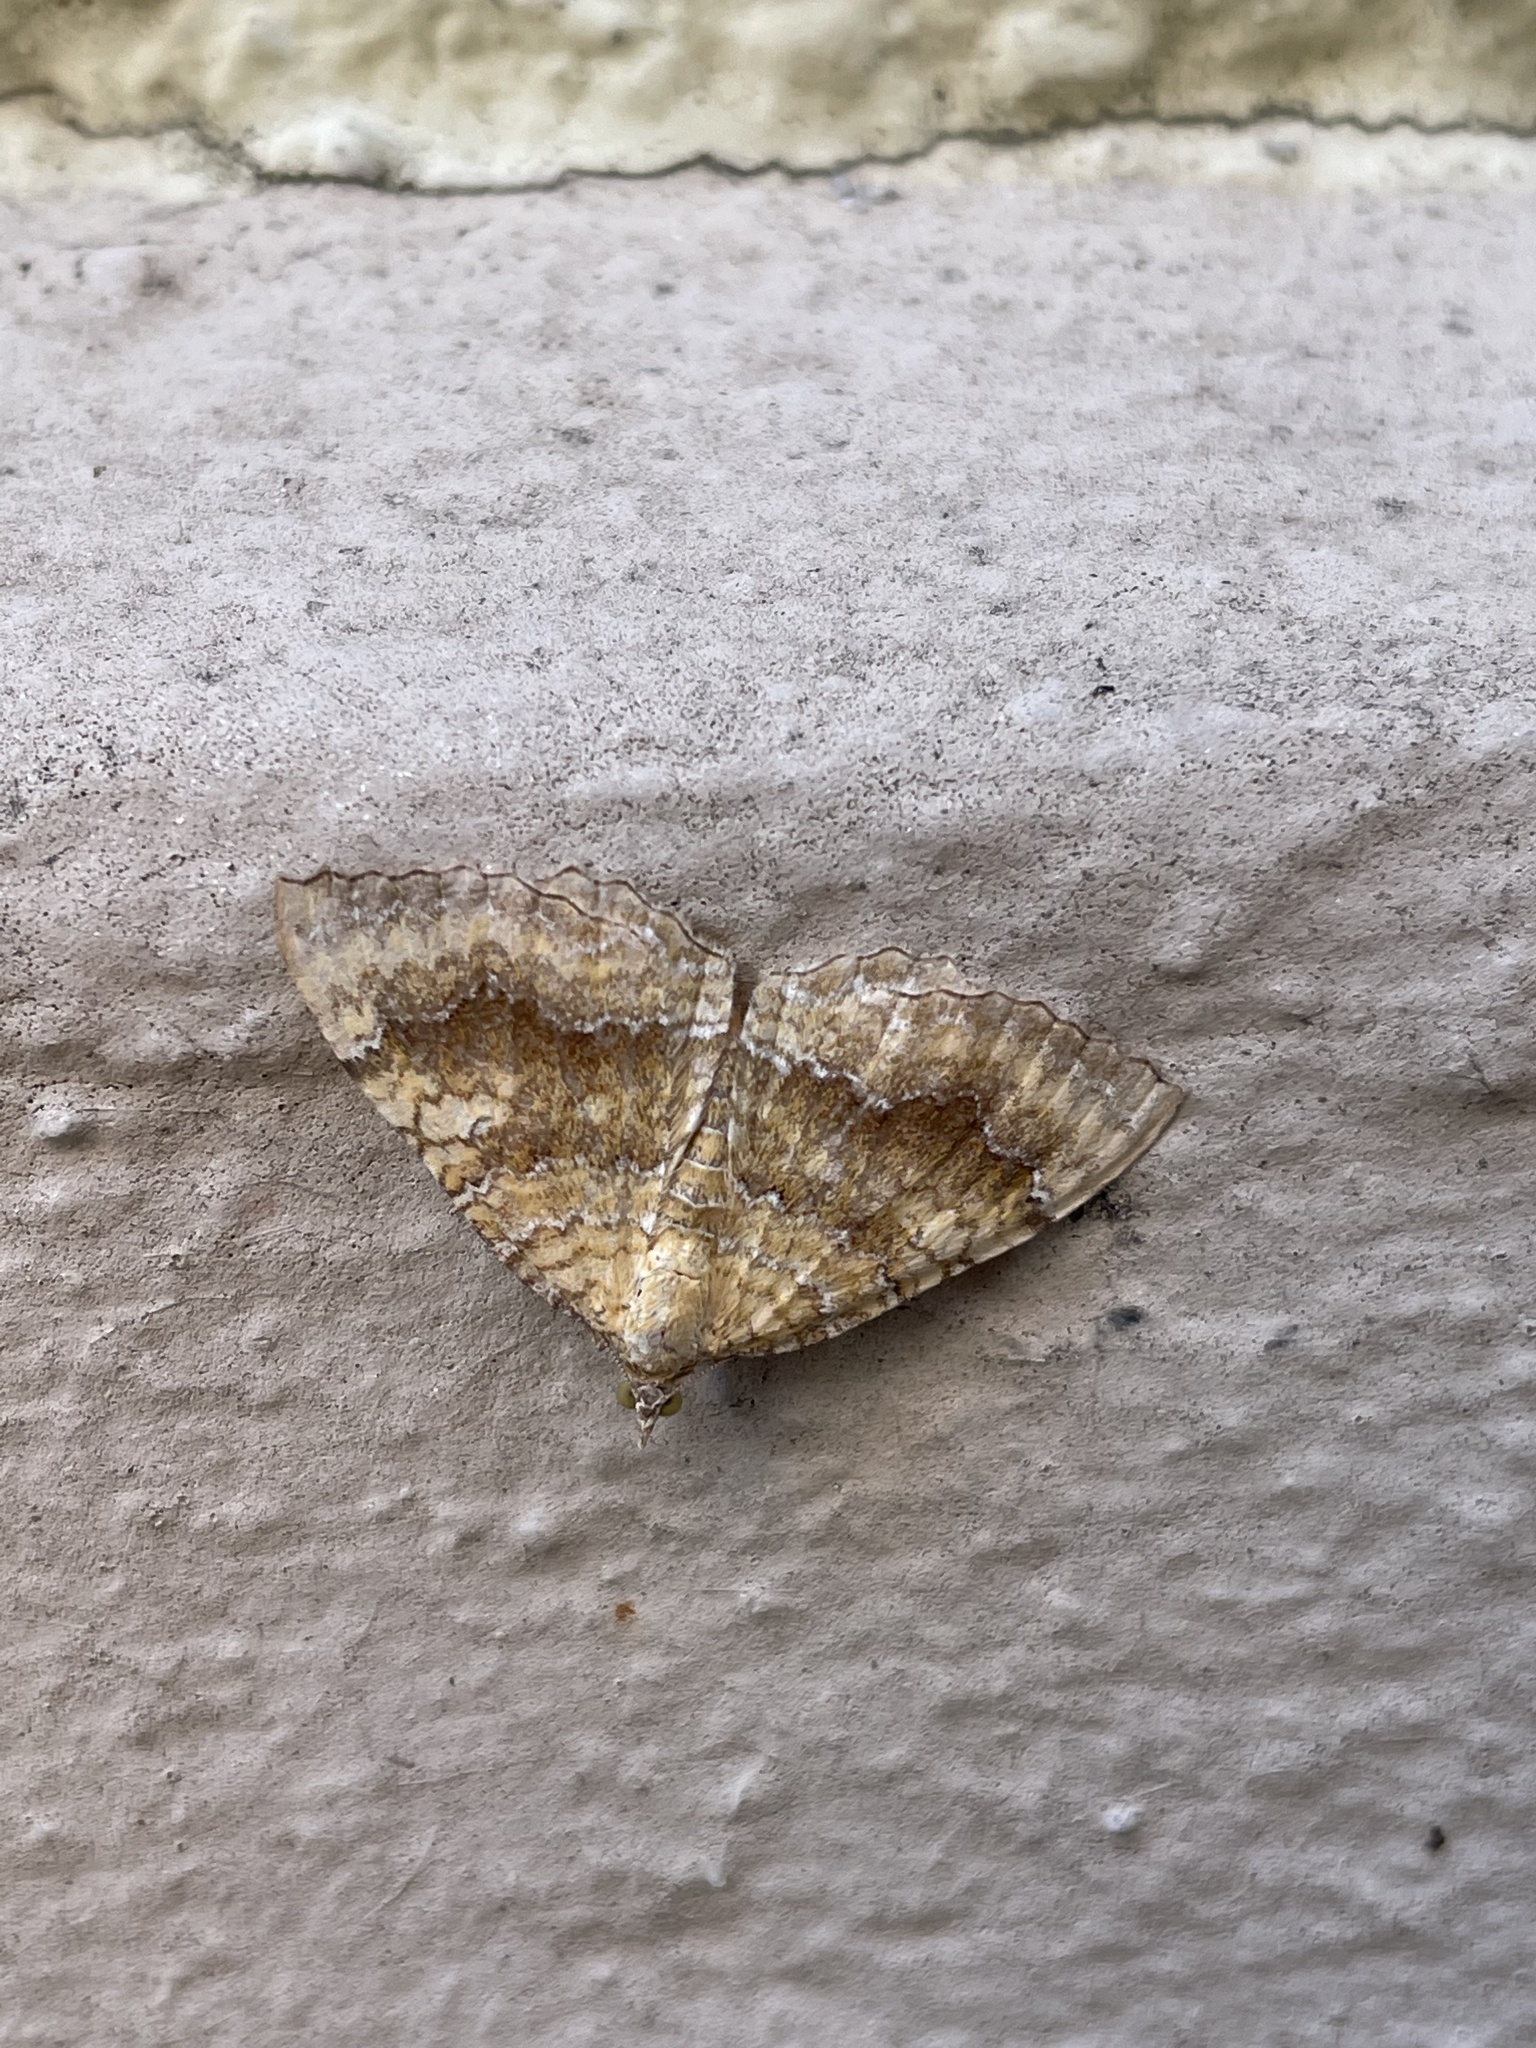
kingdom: Animalia
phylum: Arthropoda
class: Insecta
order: Lepidoptera
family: Geometridae
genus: Camptogramma
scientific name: Camptogramma bilineata
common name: Yellow shell
